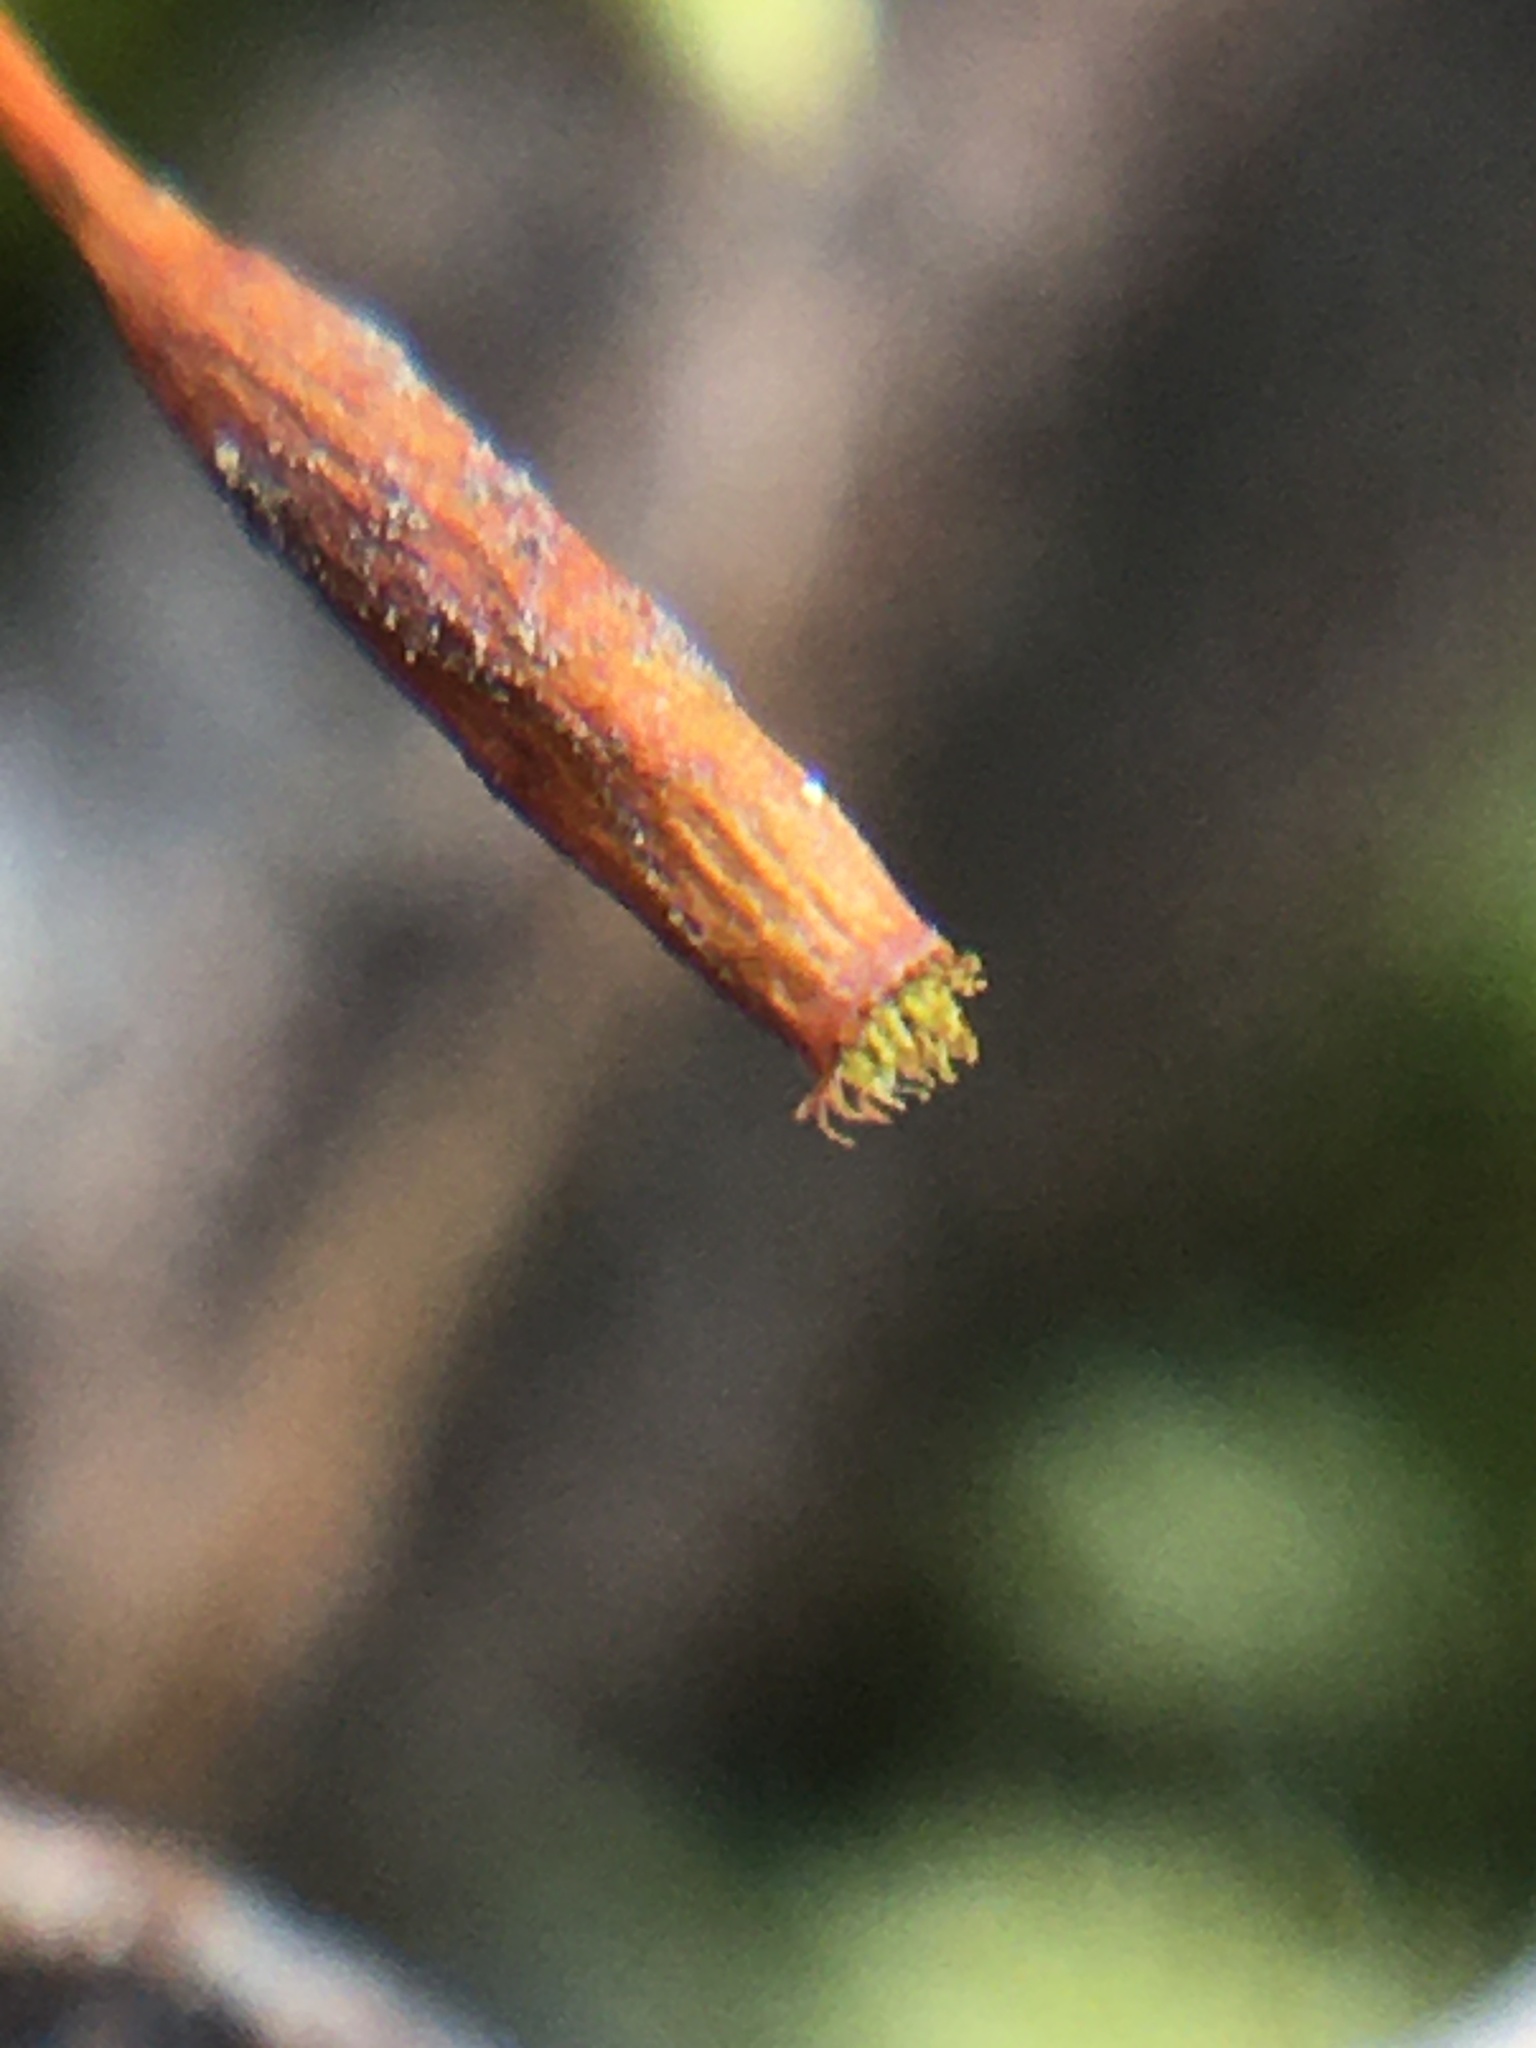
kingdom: Plantae
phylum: Bryophyta
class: Bryopsida
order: Hypnales
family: Entodontaceae
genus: Entodon
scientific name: Entodon seductrix
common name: Round-stemmed entodon moss
